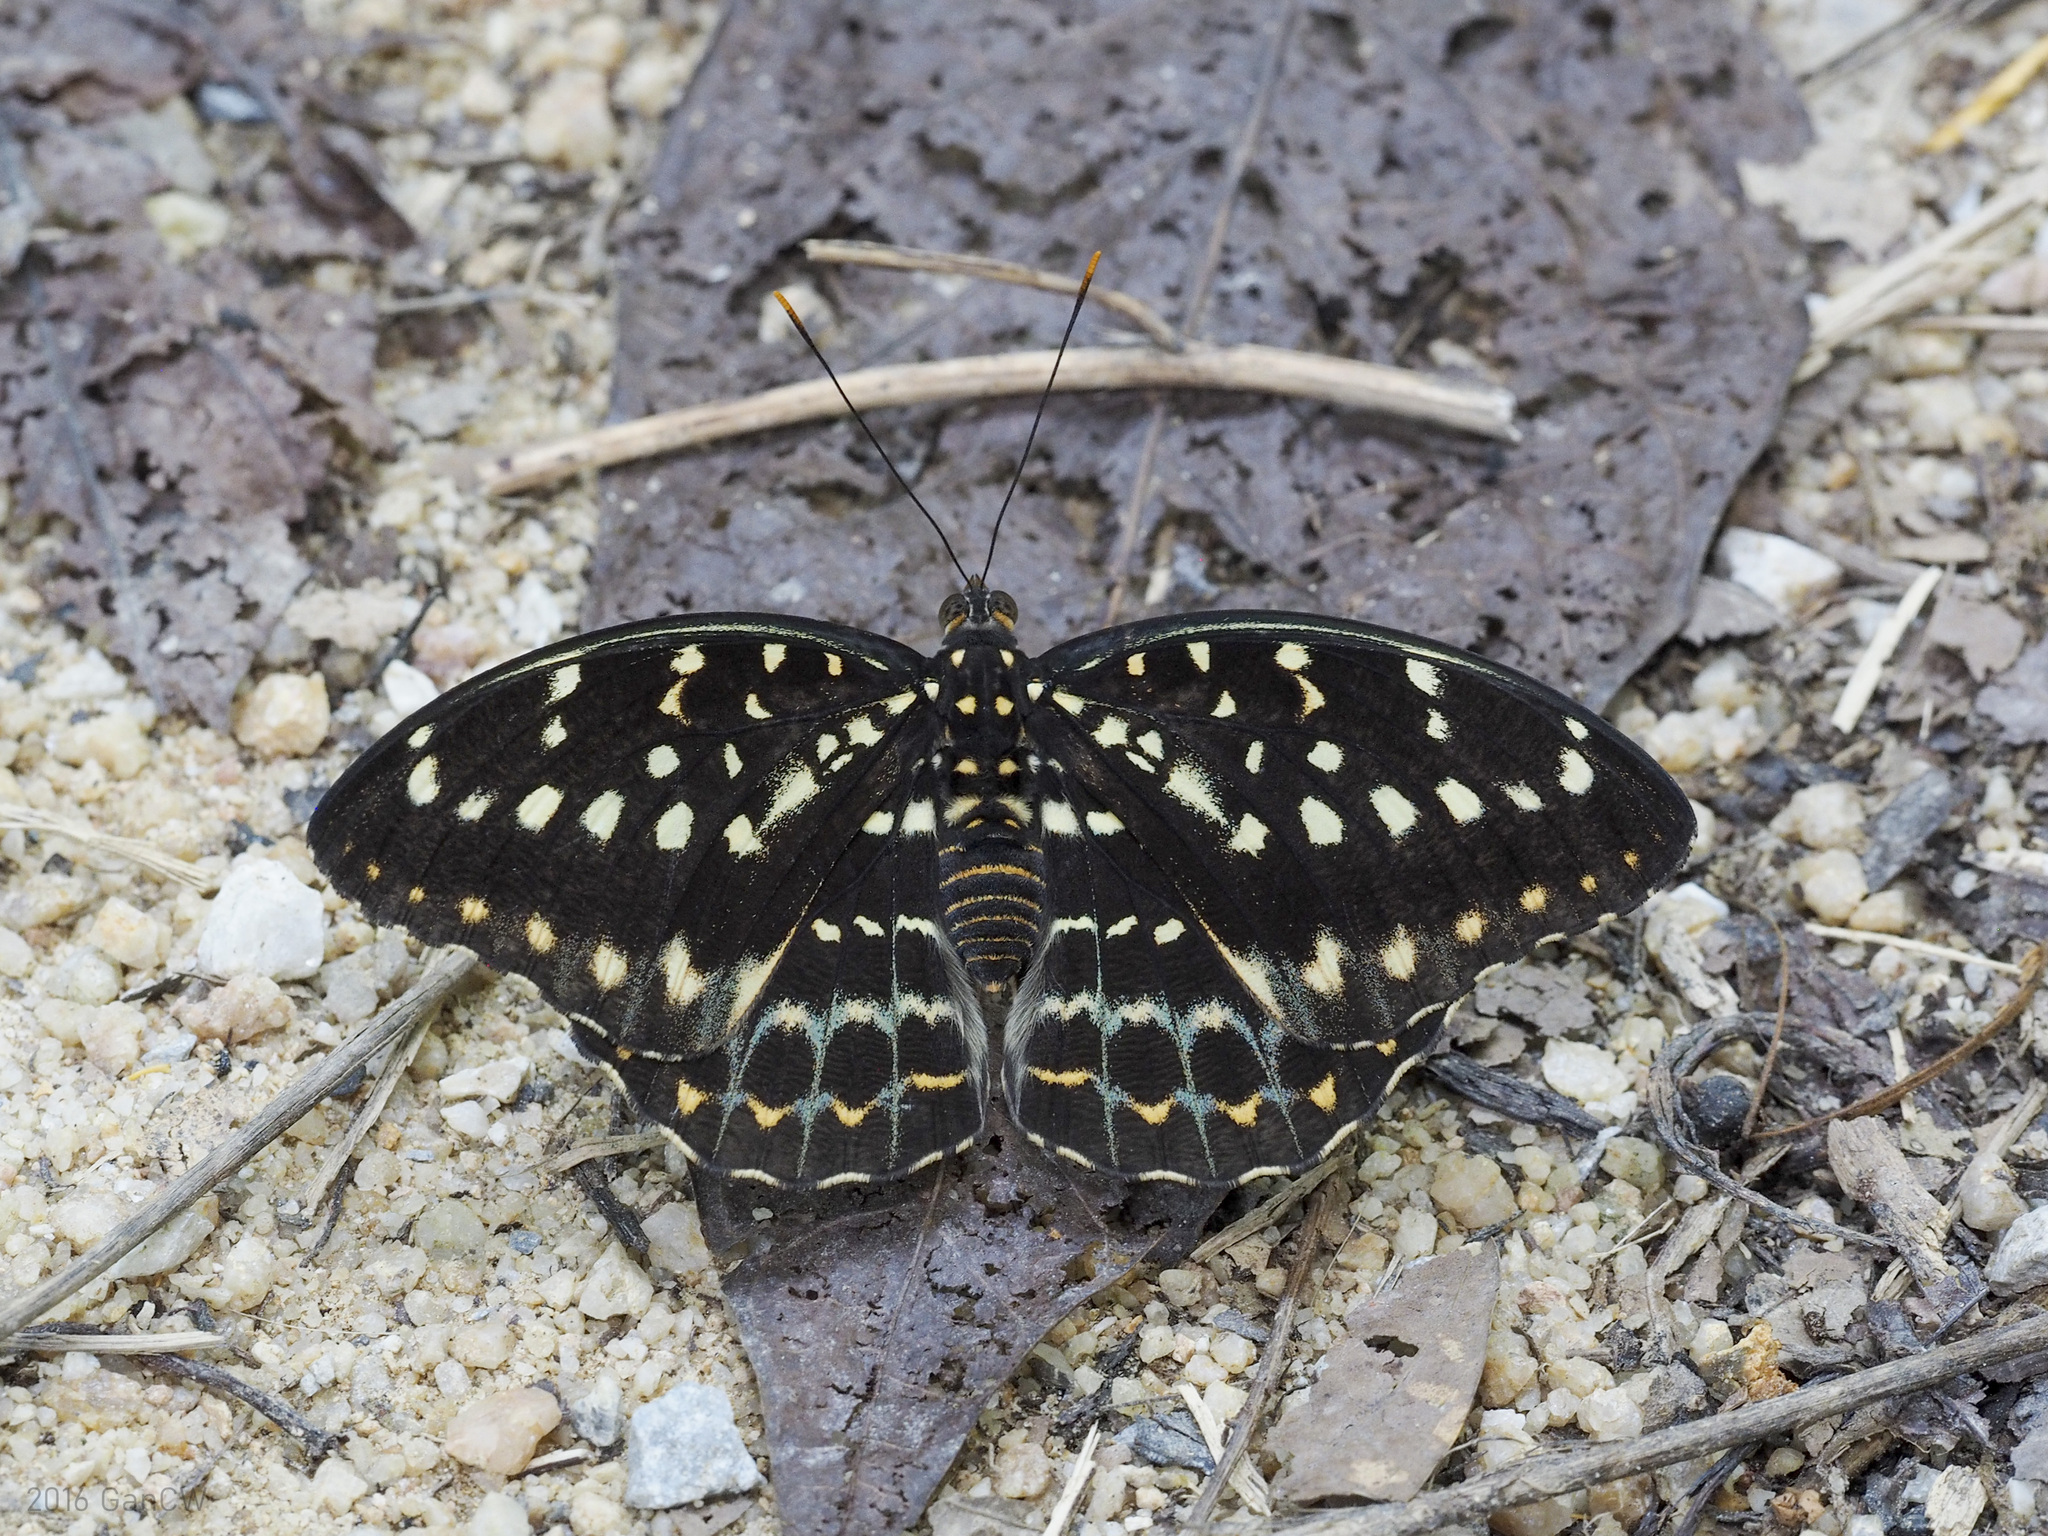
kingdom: Animalia
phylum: Arthropoda
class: Insecta
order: Lepidoptera
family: Nymphalidae
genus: Lexias
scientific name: Lexias pardalis
